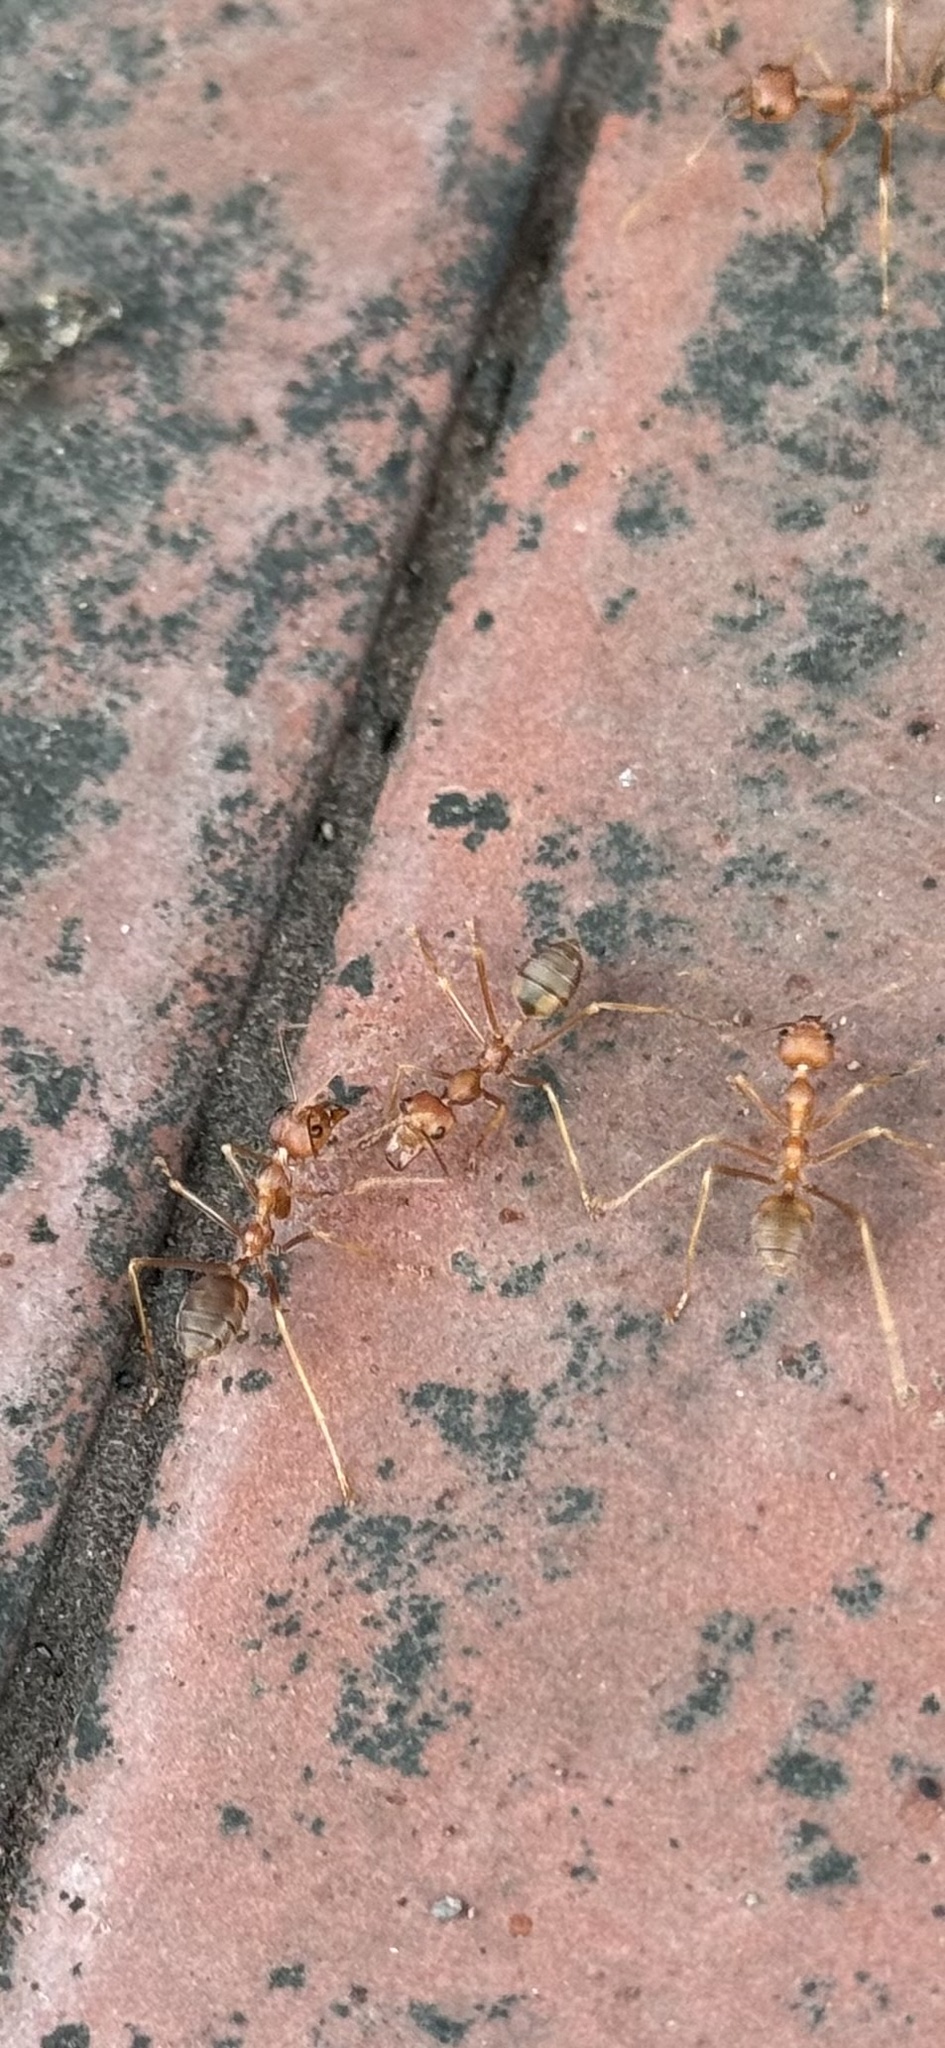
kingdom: Animalia
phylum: Arthropoda
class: Insecta
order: Hymenoptera
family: Formicidae
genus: Oecophylla
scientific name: Oecophylla smaragdina
